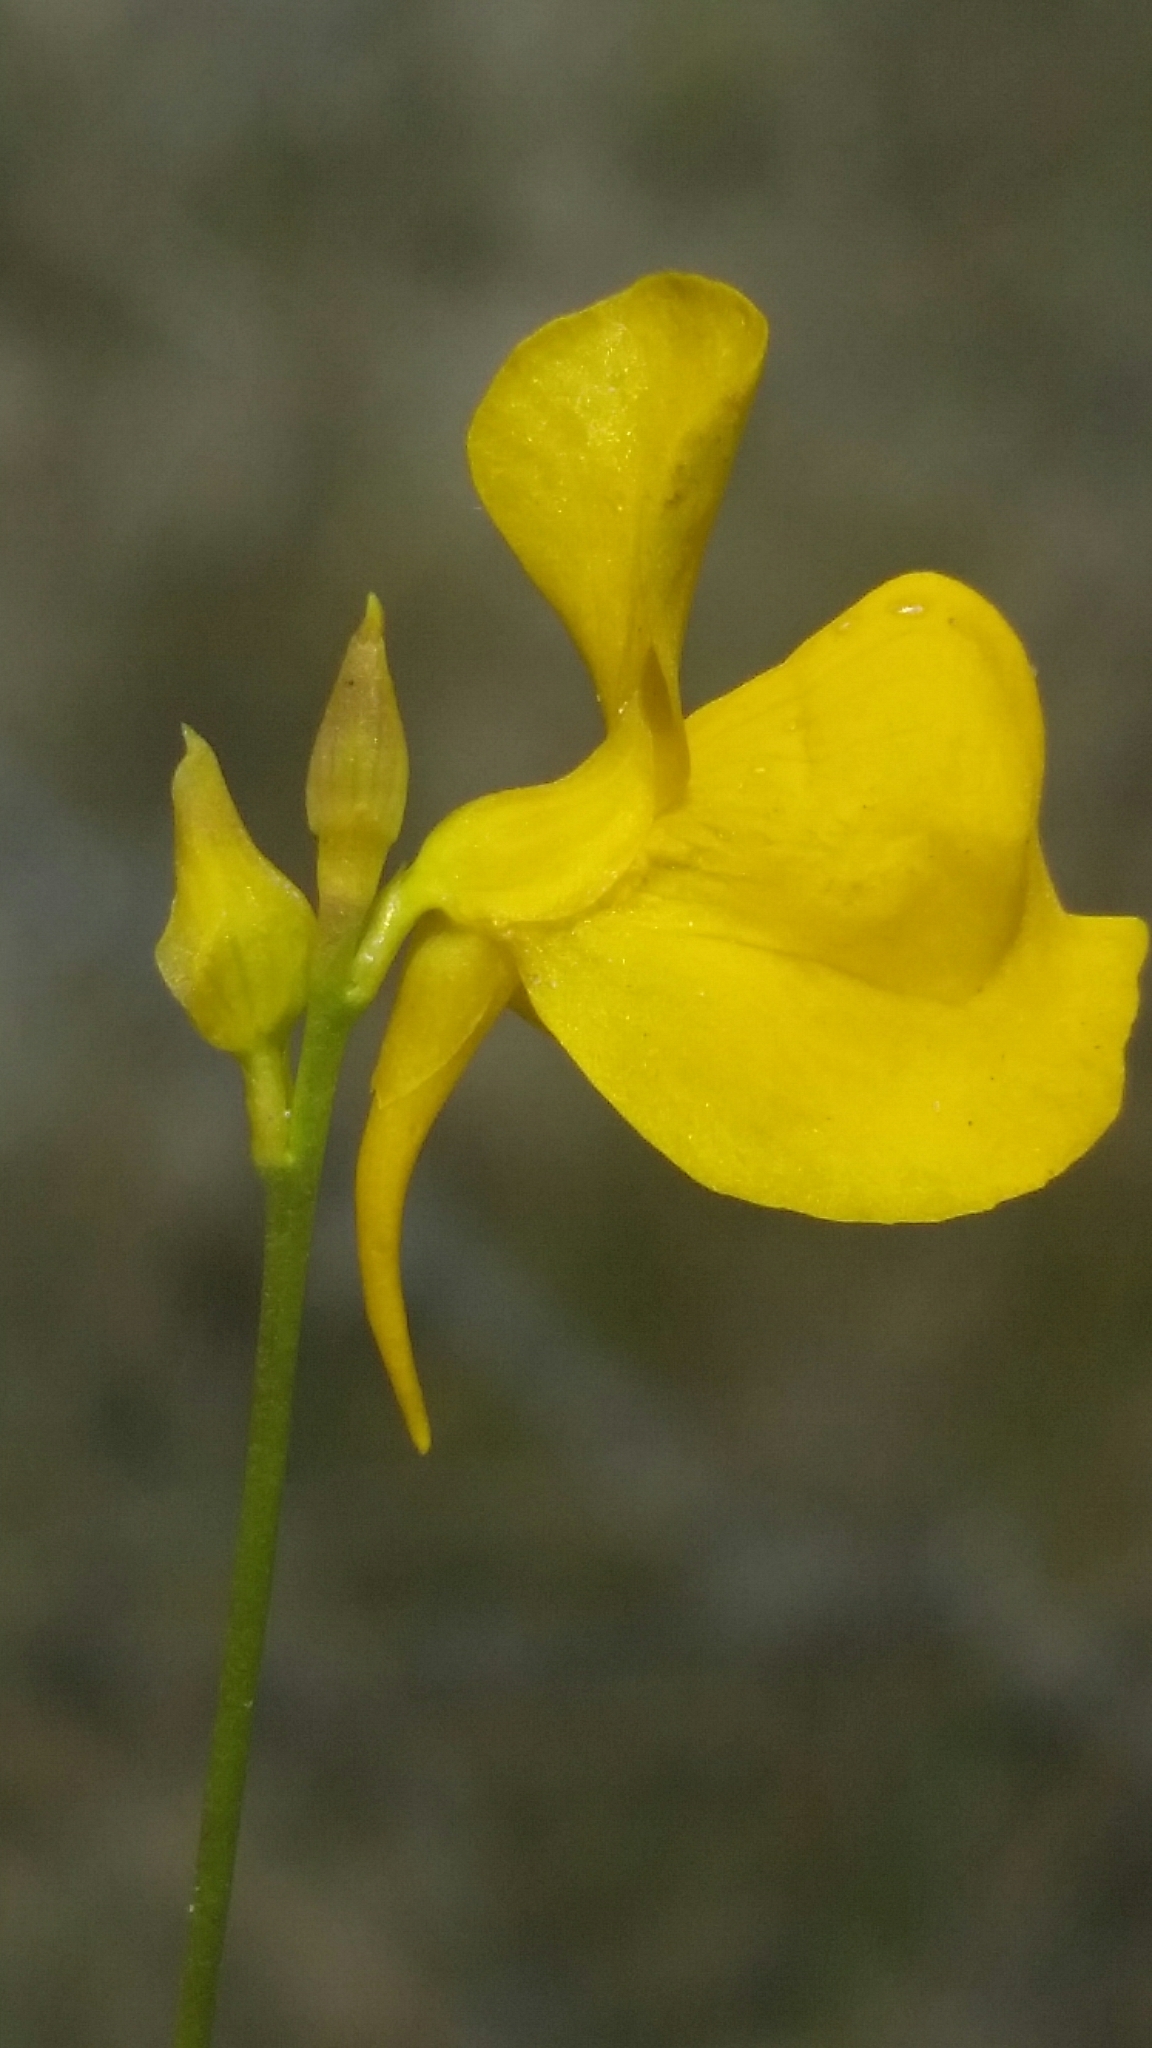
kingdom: Plantae
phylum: Tracheophyta
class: Magnoliopsida
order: Lamiales
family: Lentibulariaceae
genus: Utricularia
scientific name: Utricularia cornuta
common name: Horned bladderwort
